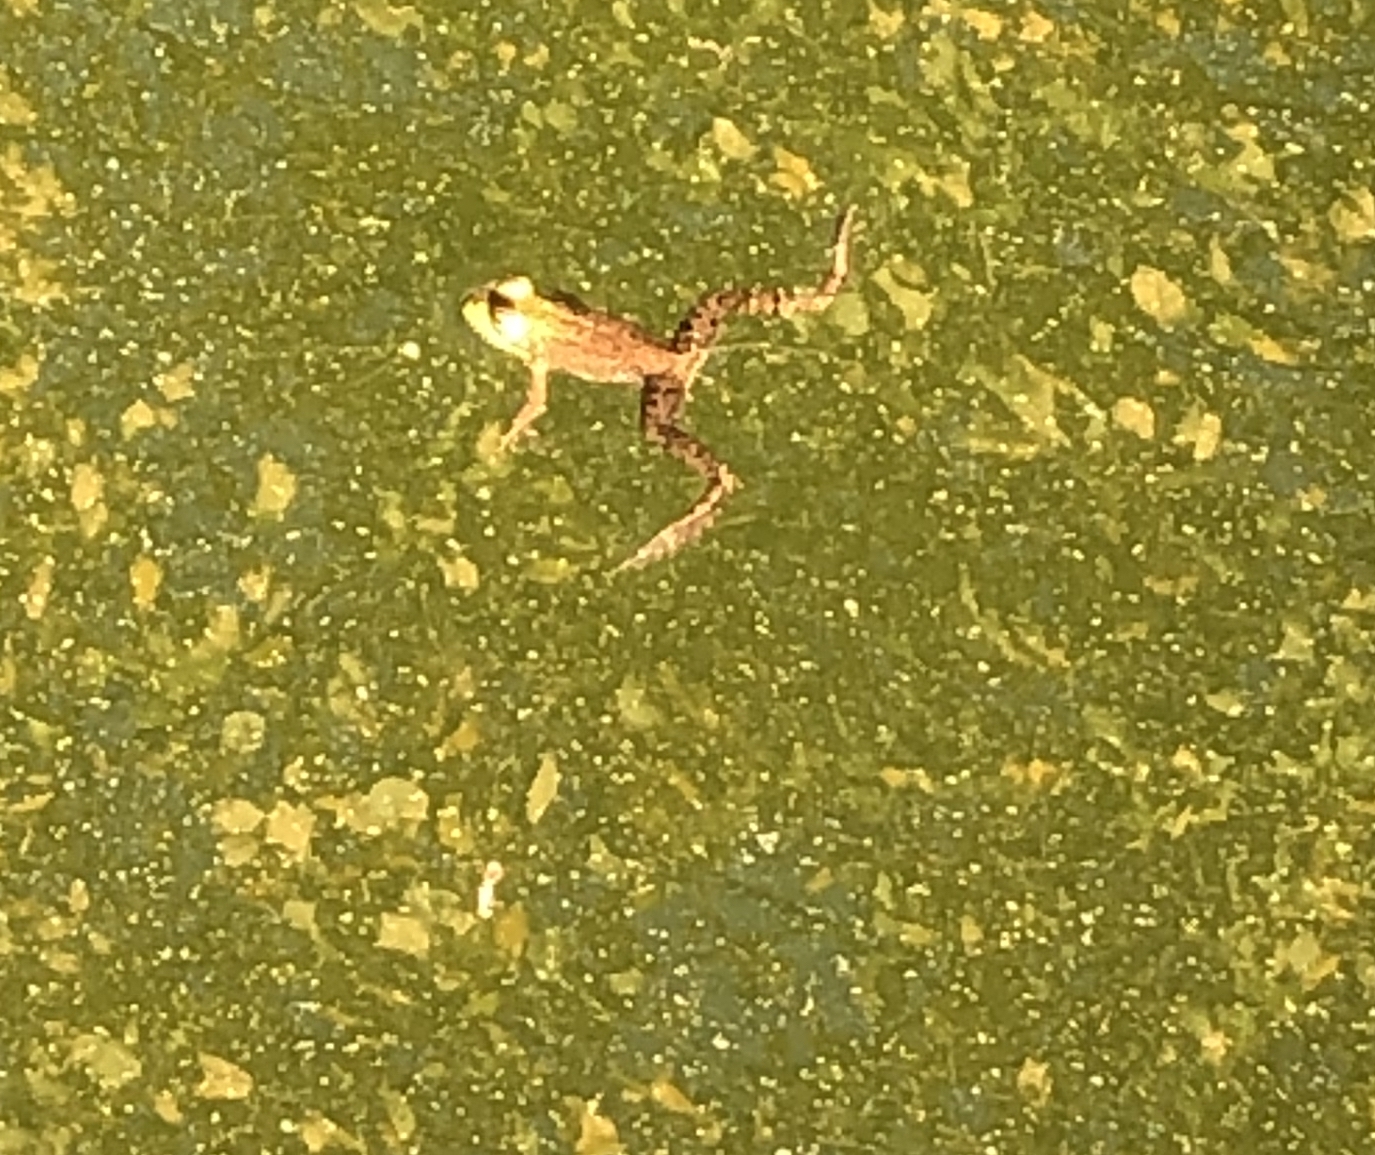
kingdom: Animalia
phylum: Chordata
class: Amphibia
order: Anura
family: Ranidae
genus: Lithobates
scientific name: Lithobates clamitans
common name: Green frog
